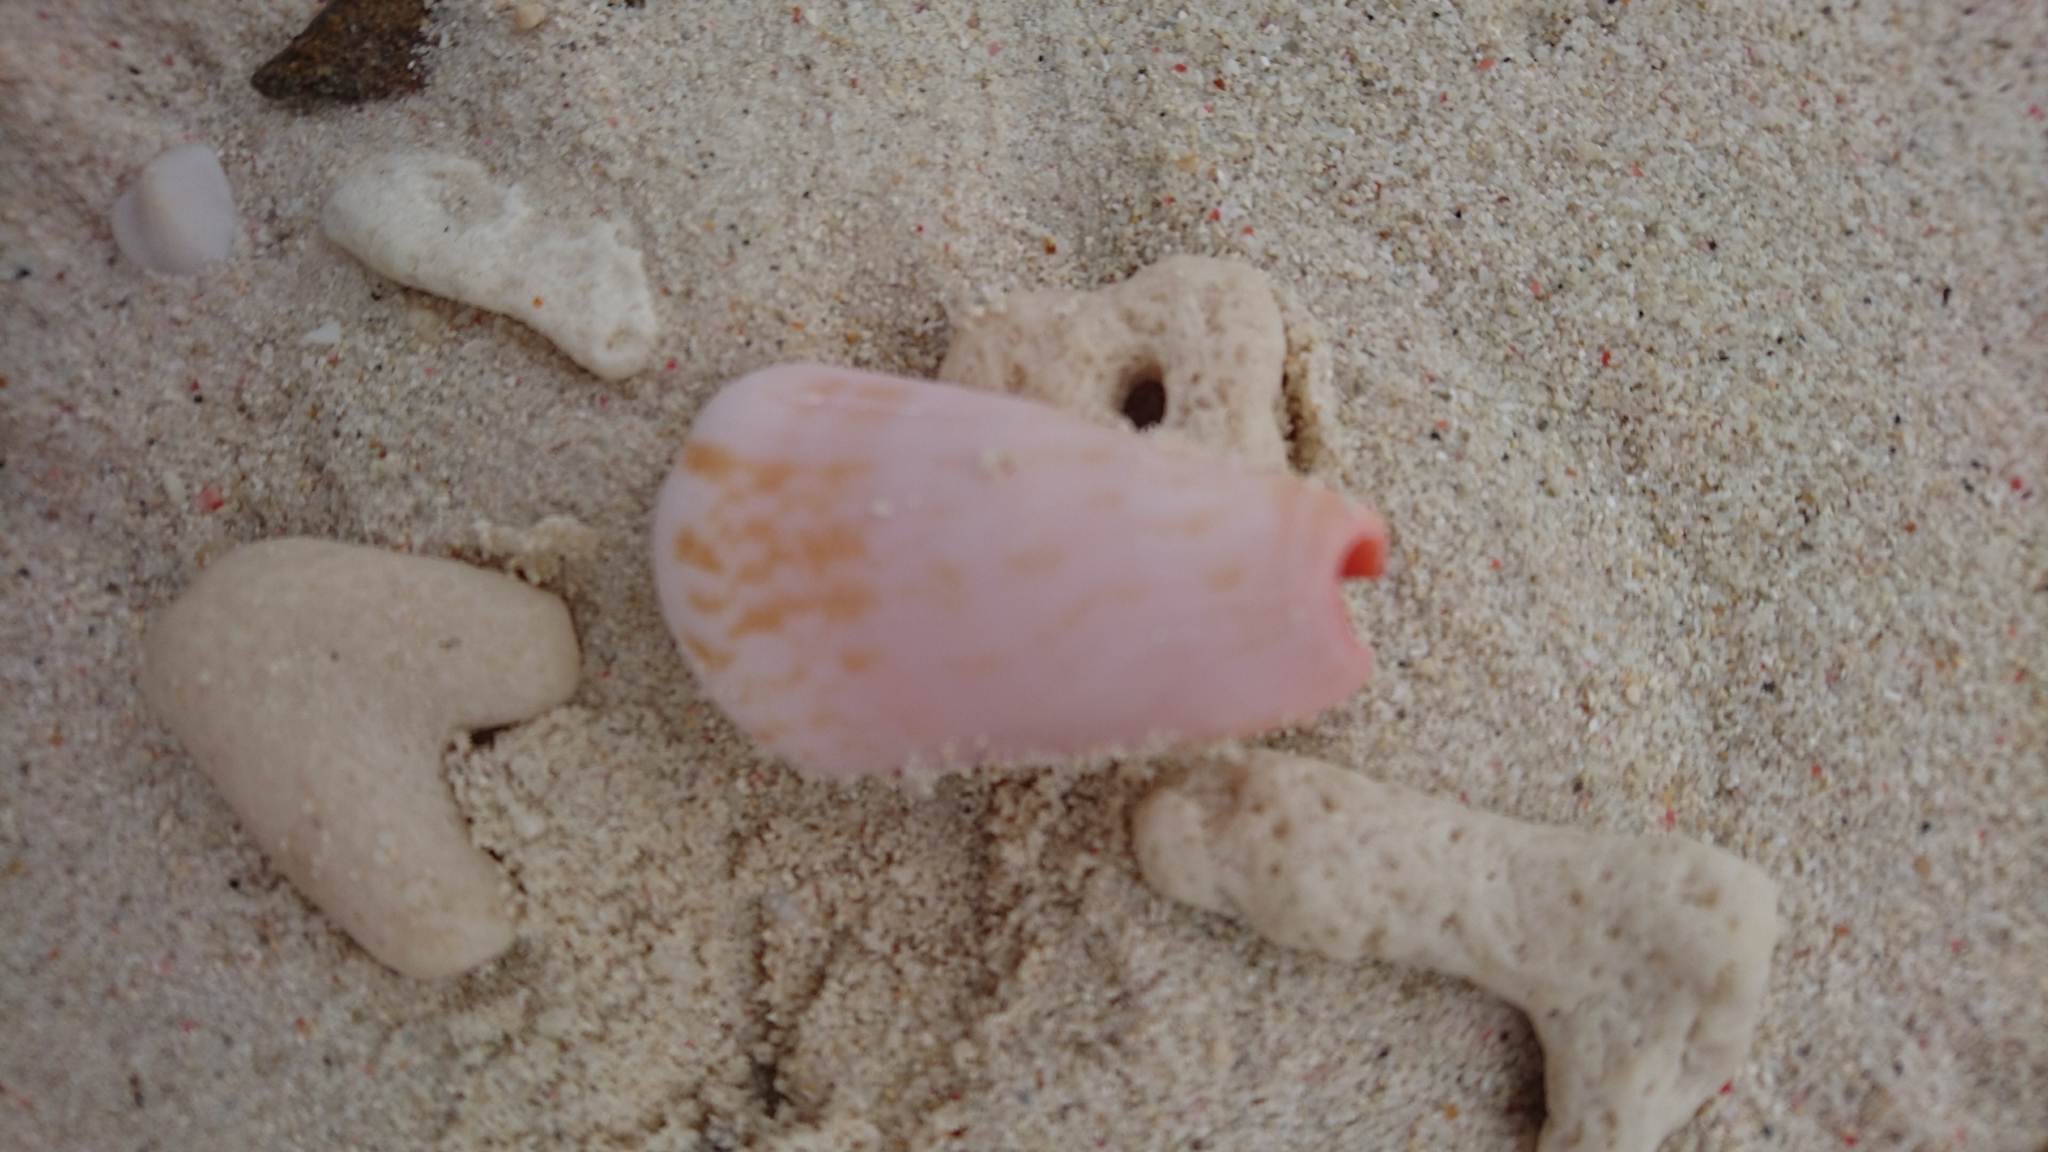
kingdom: Animalia
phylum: Mollusca
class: Gastropoda
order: Littorinimorpha
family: Strombidae
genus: Conomurex
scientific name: Conomurex luhuanus
